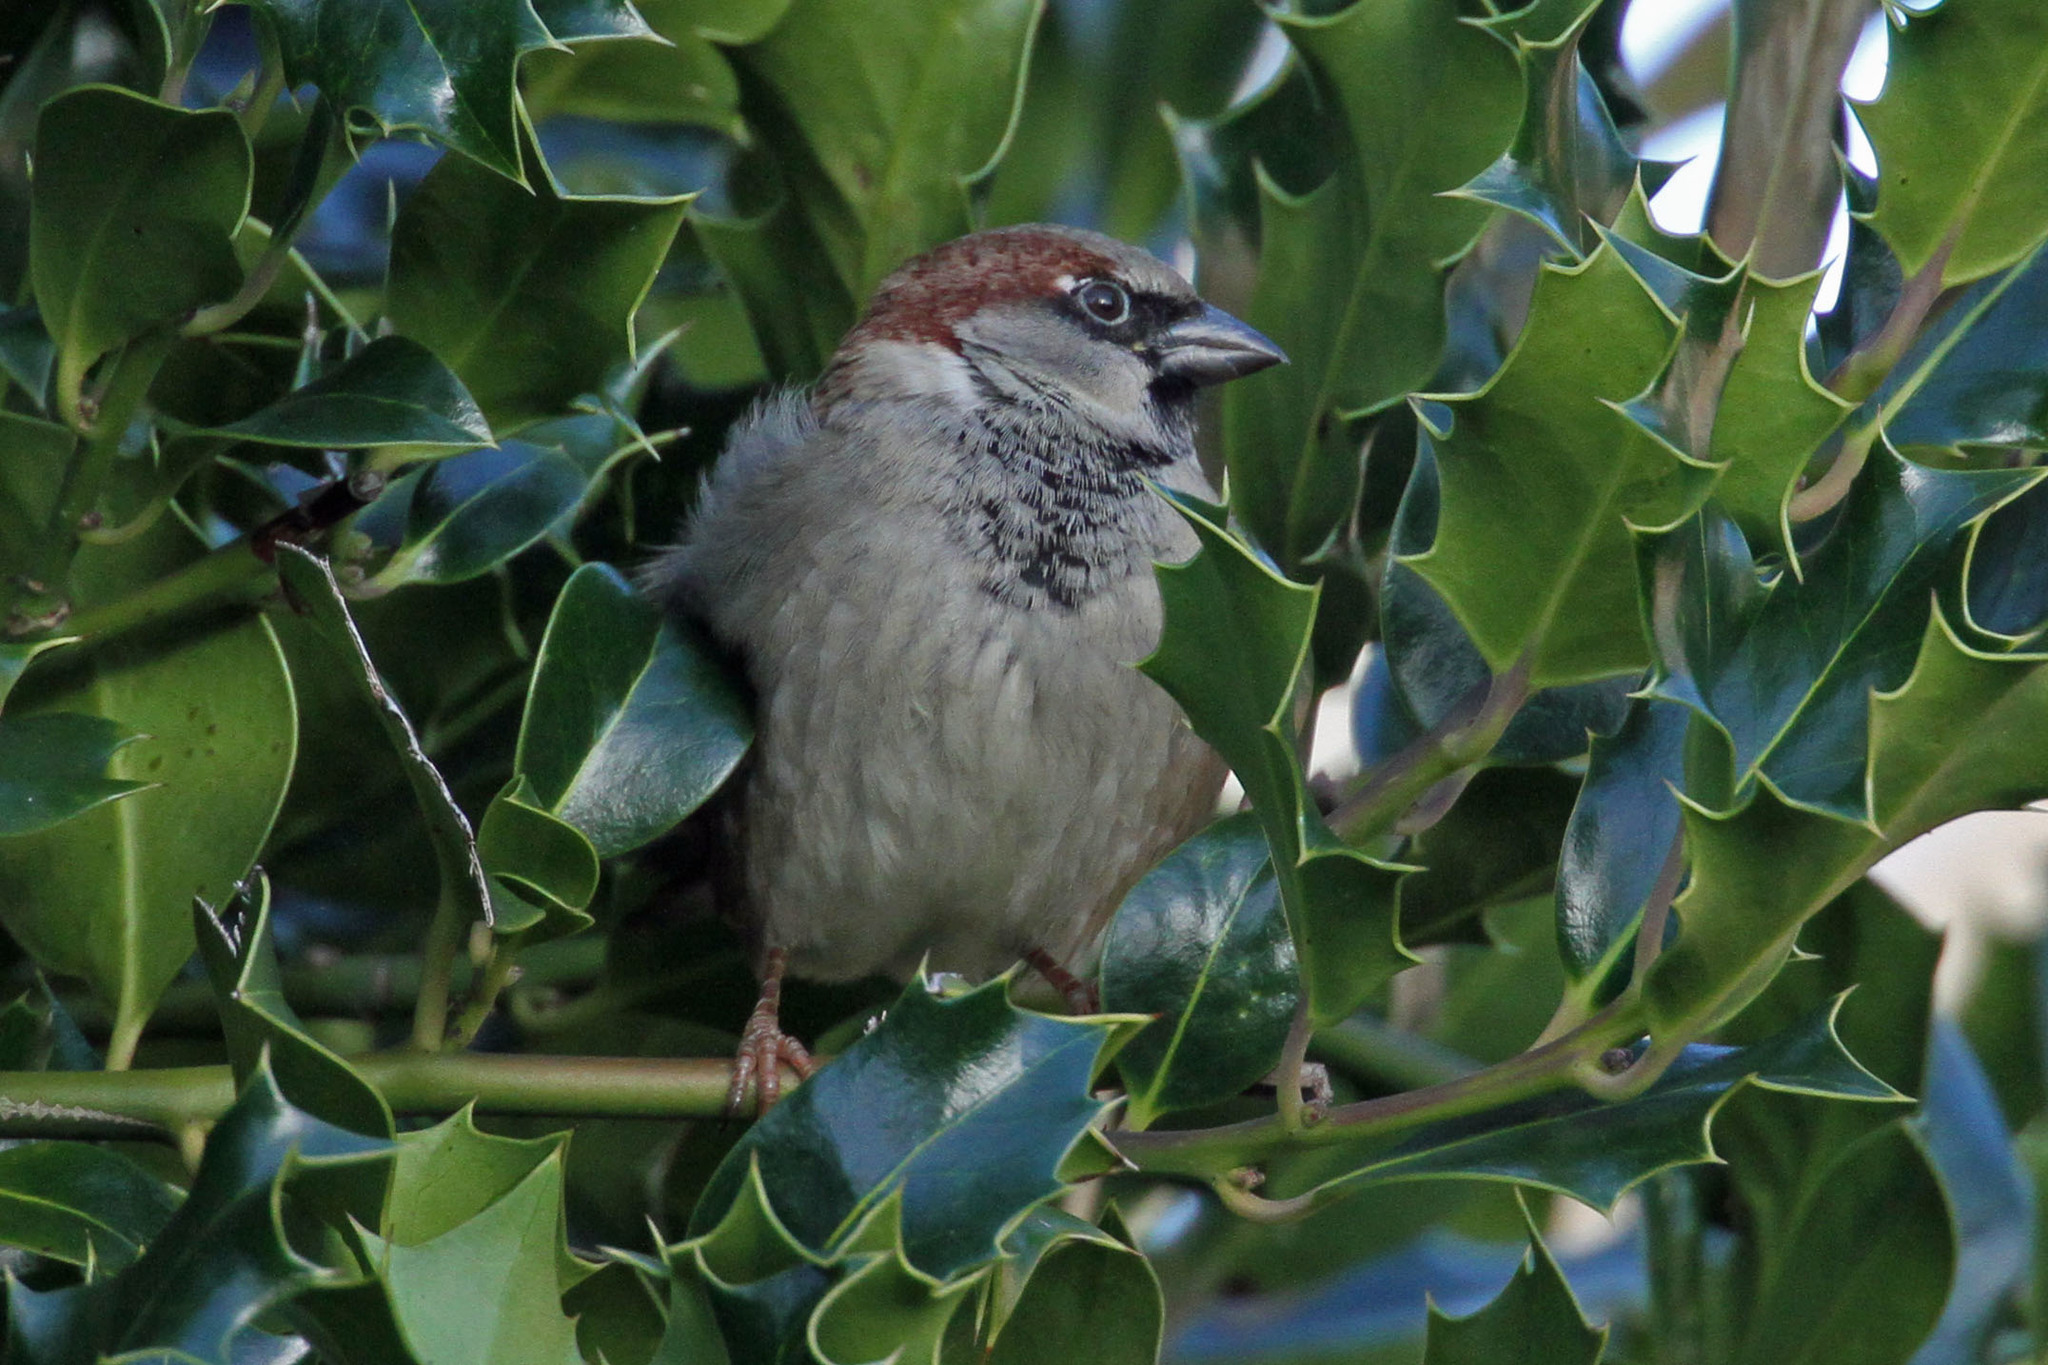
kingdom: Animalia
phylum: Chordata
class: Aves
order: Passeriformes
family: Passeridae
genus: Passer
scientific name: Passer domesticus
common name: House sparrow
